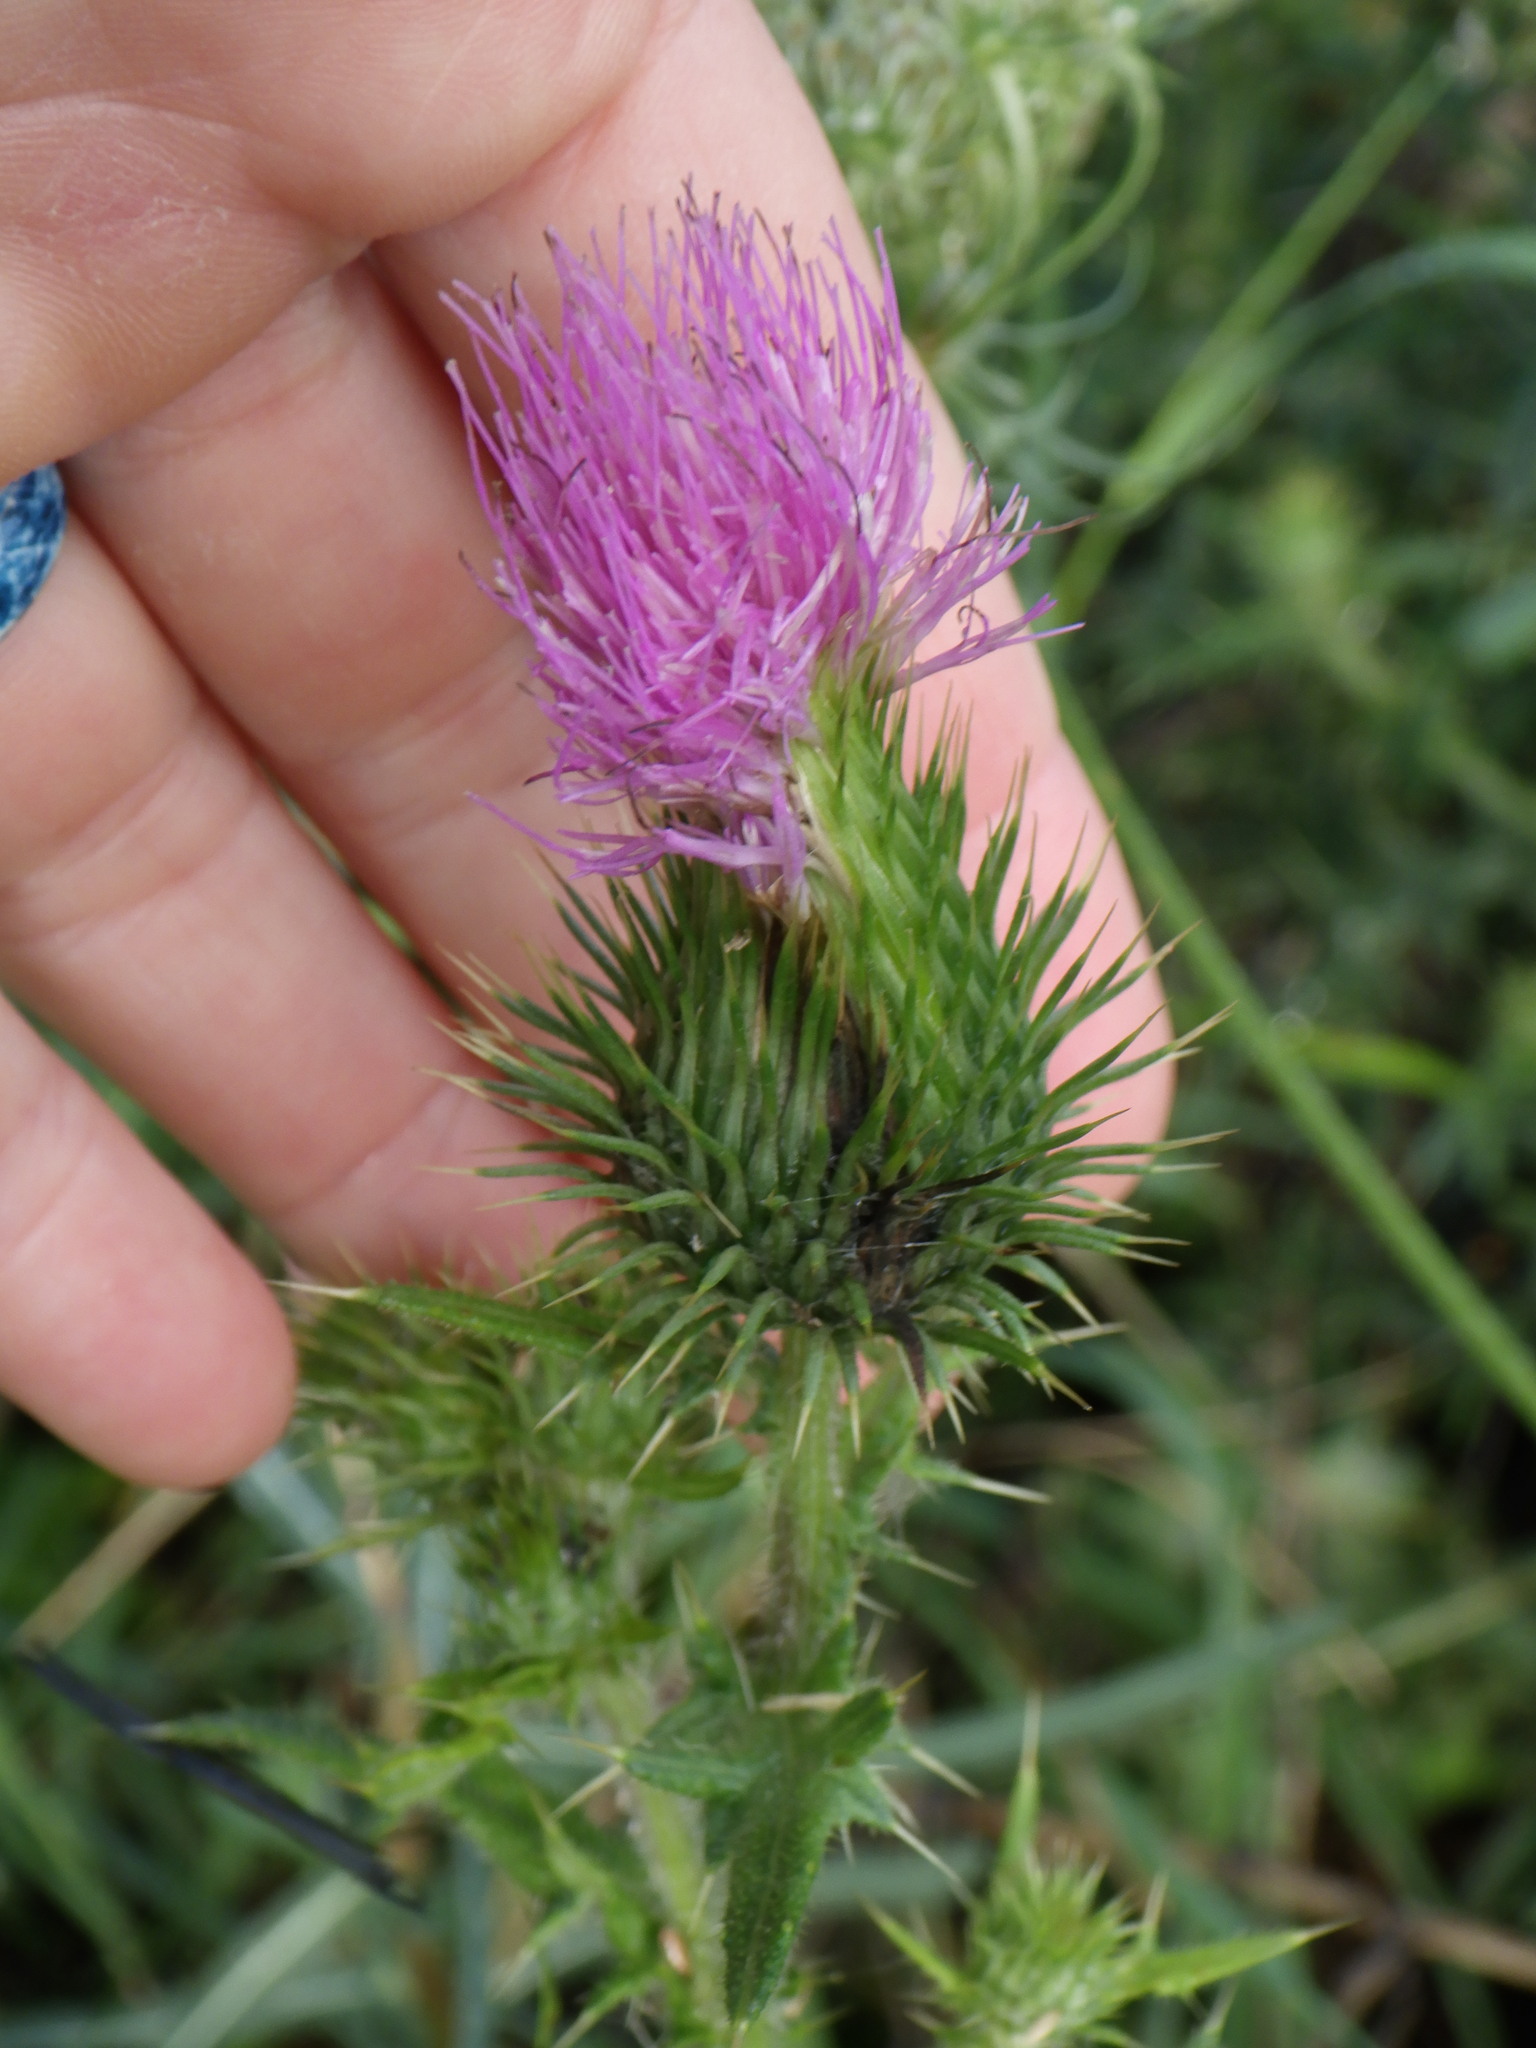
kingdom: Plantae
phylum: Tracheophyta
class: Magnoliopsida
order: Asterales
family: Asteraceae
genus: Cirsium
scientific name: Cirsium vulgare
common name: Bull thistle
